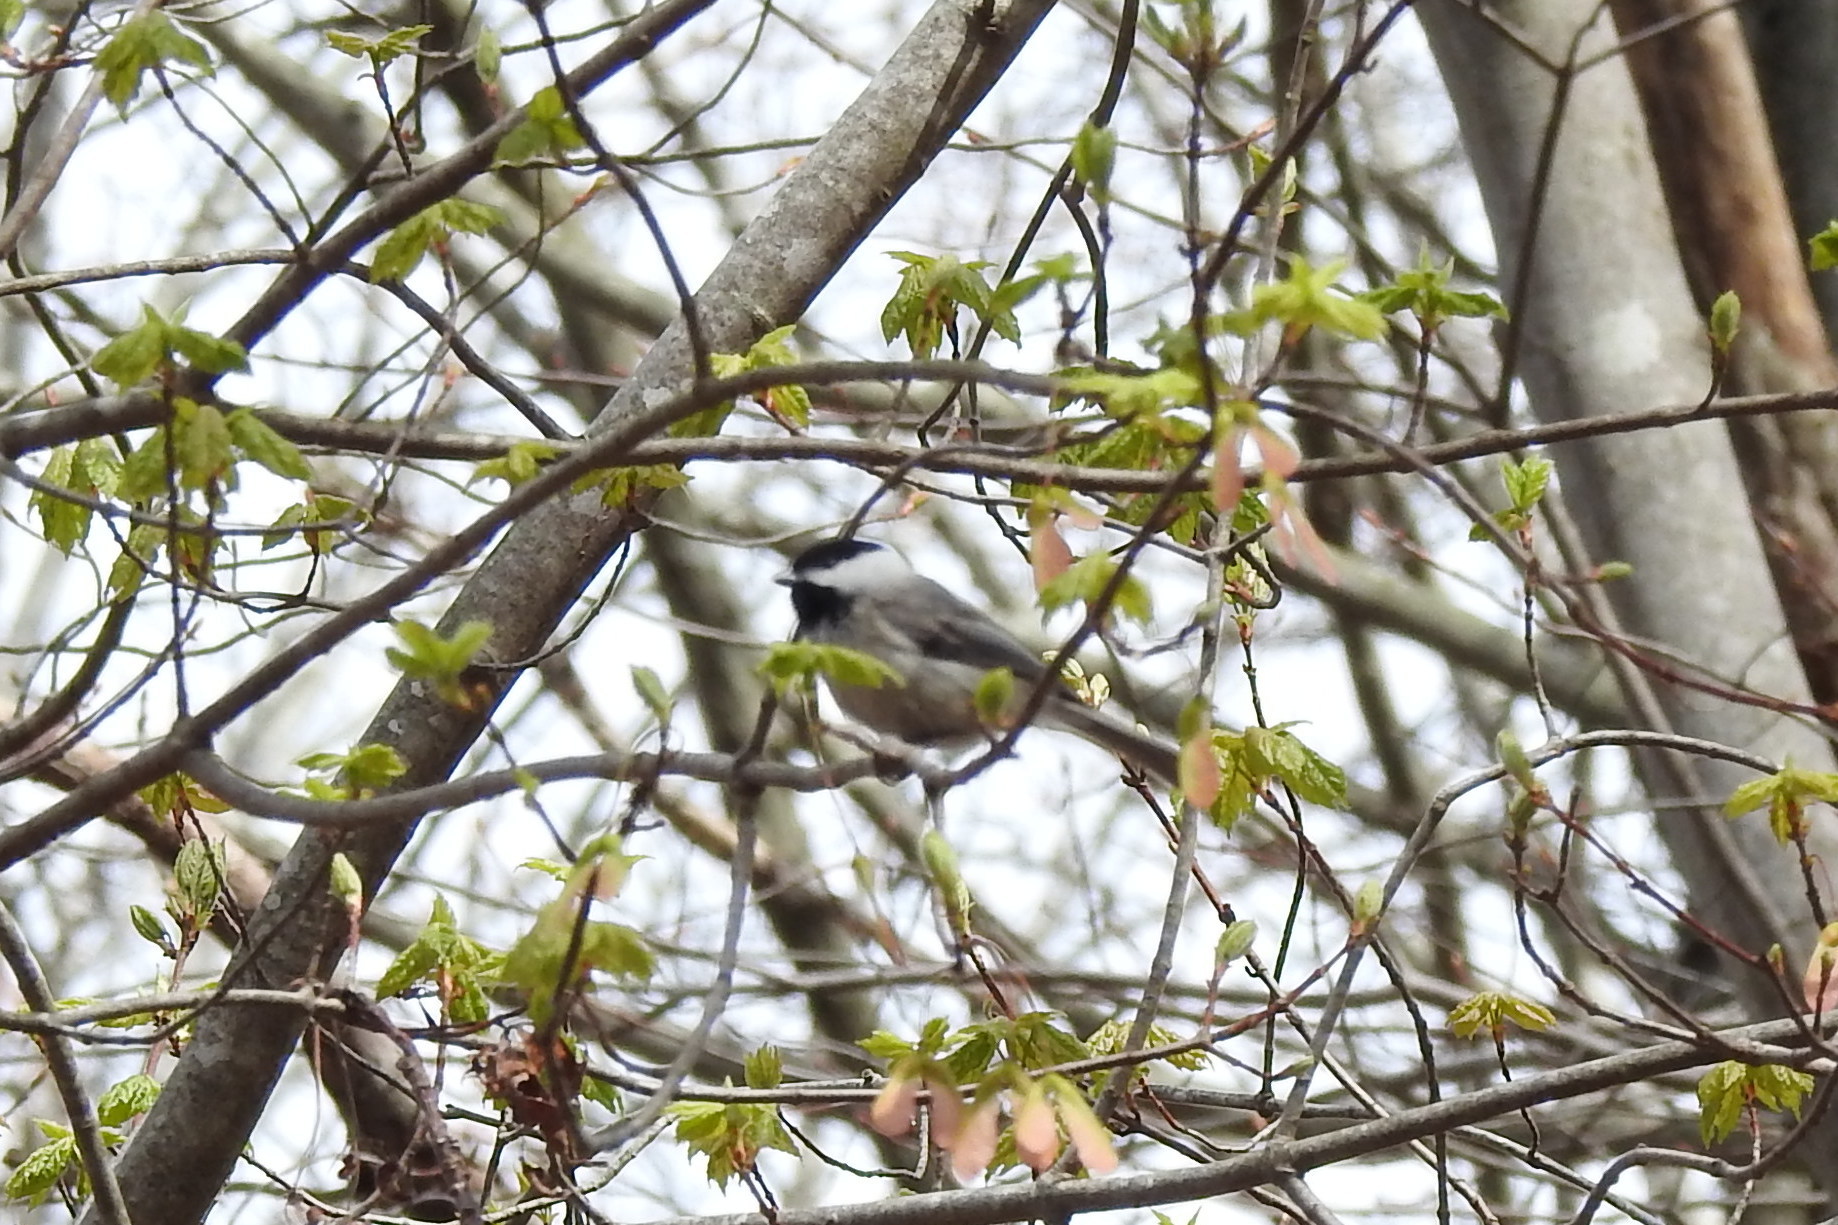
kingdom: Animalia
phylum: Chordata
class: Aves
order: Passeriformes
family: Paridae
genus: Poecile
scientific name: Poecile carolinensis
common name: Carolina chickadee
